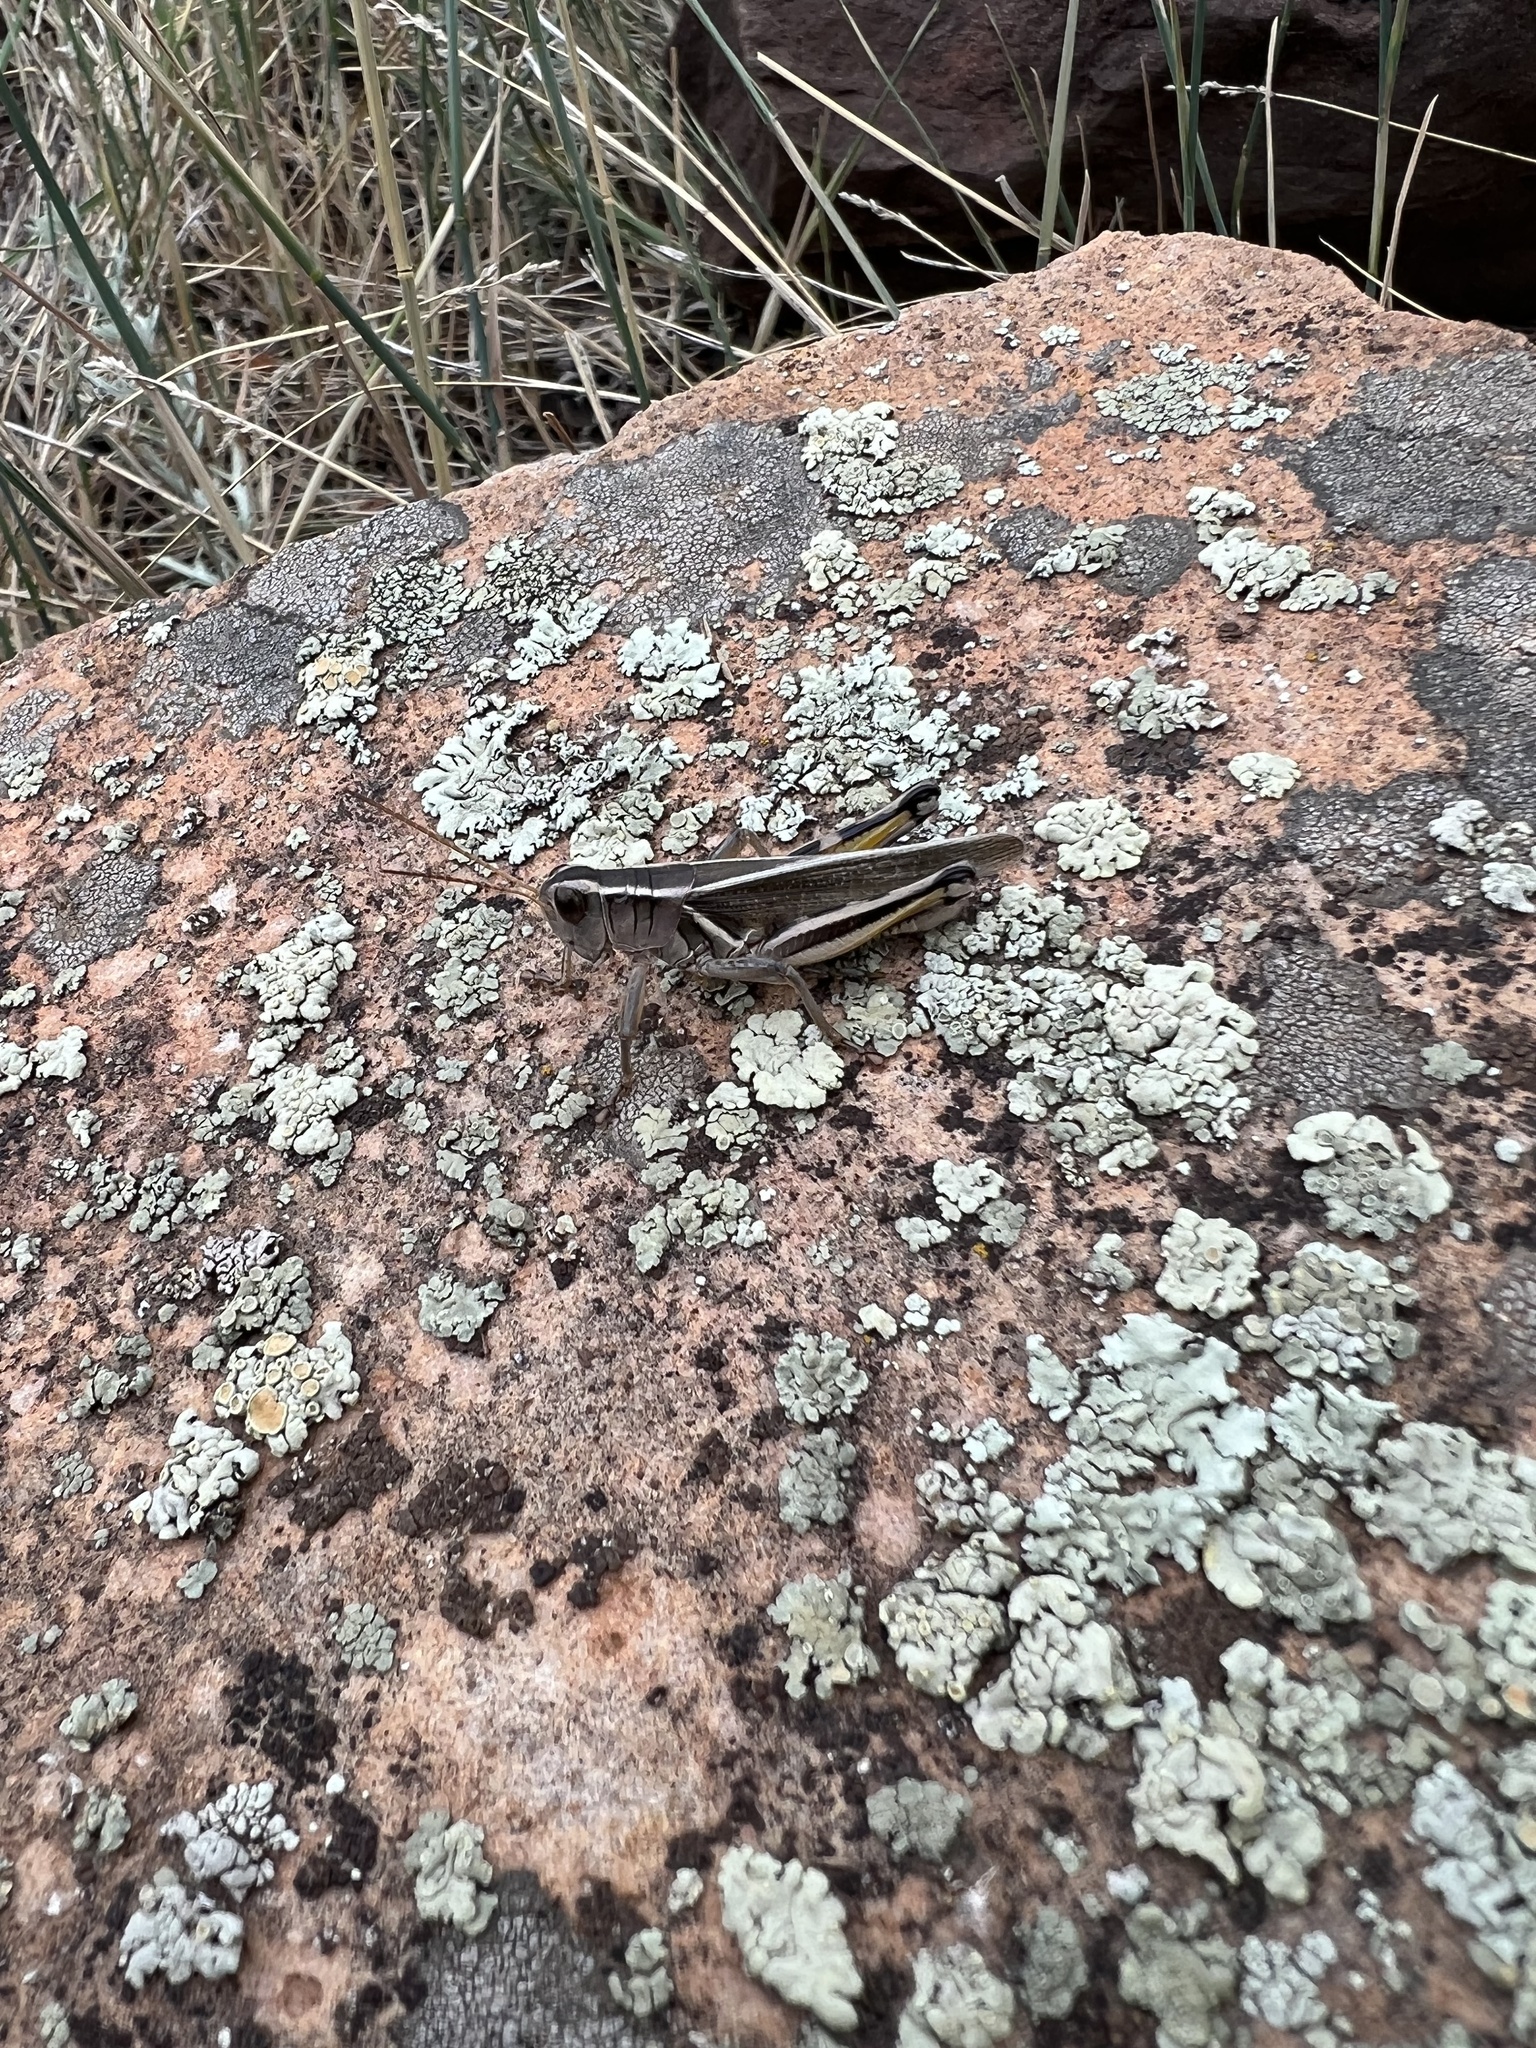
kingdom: Animalia
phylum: Arthropoda
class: Insecta
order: Orthoptera
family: Acrididae
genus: Melanoplus
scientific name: Melanoplus bivittatus
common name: Two-striped grasshopper
